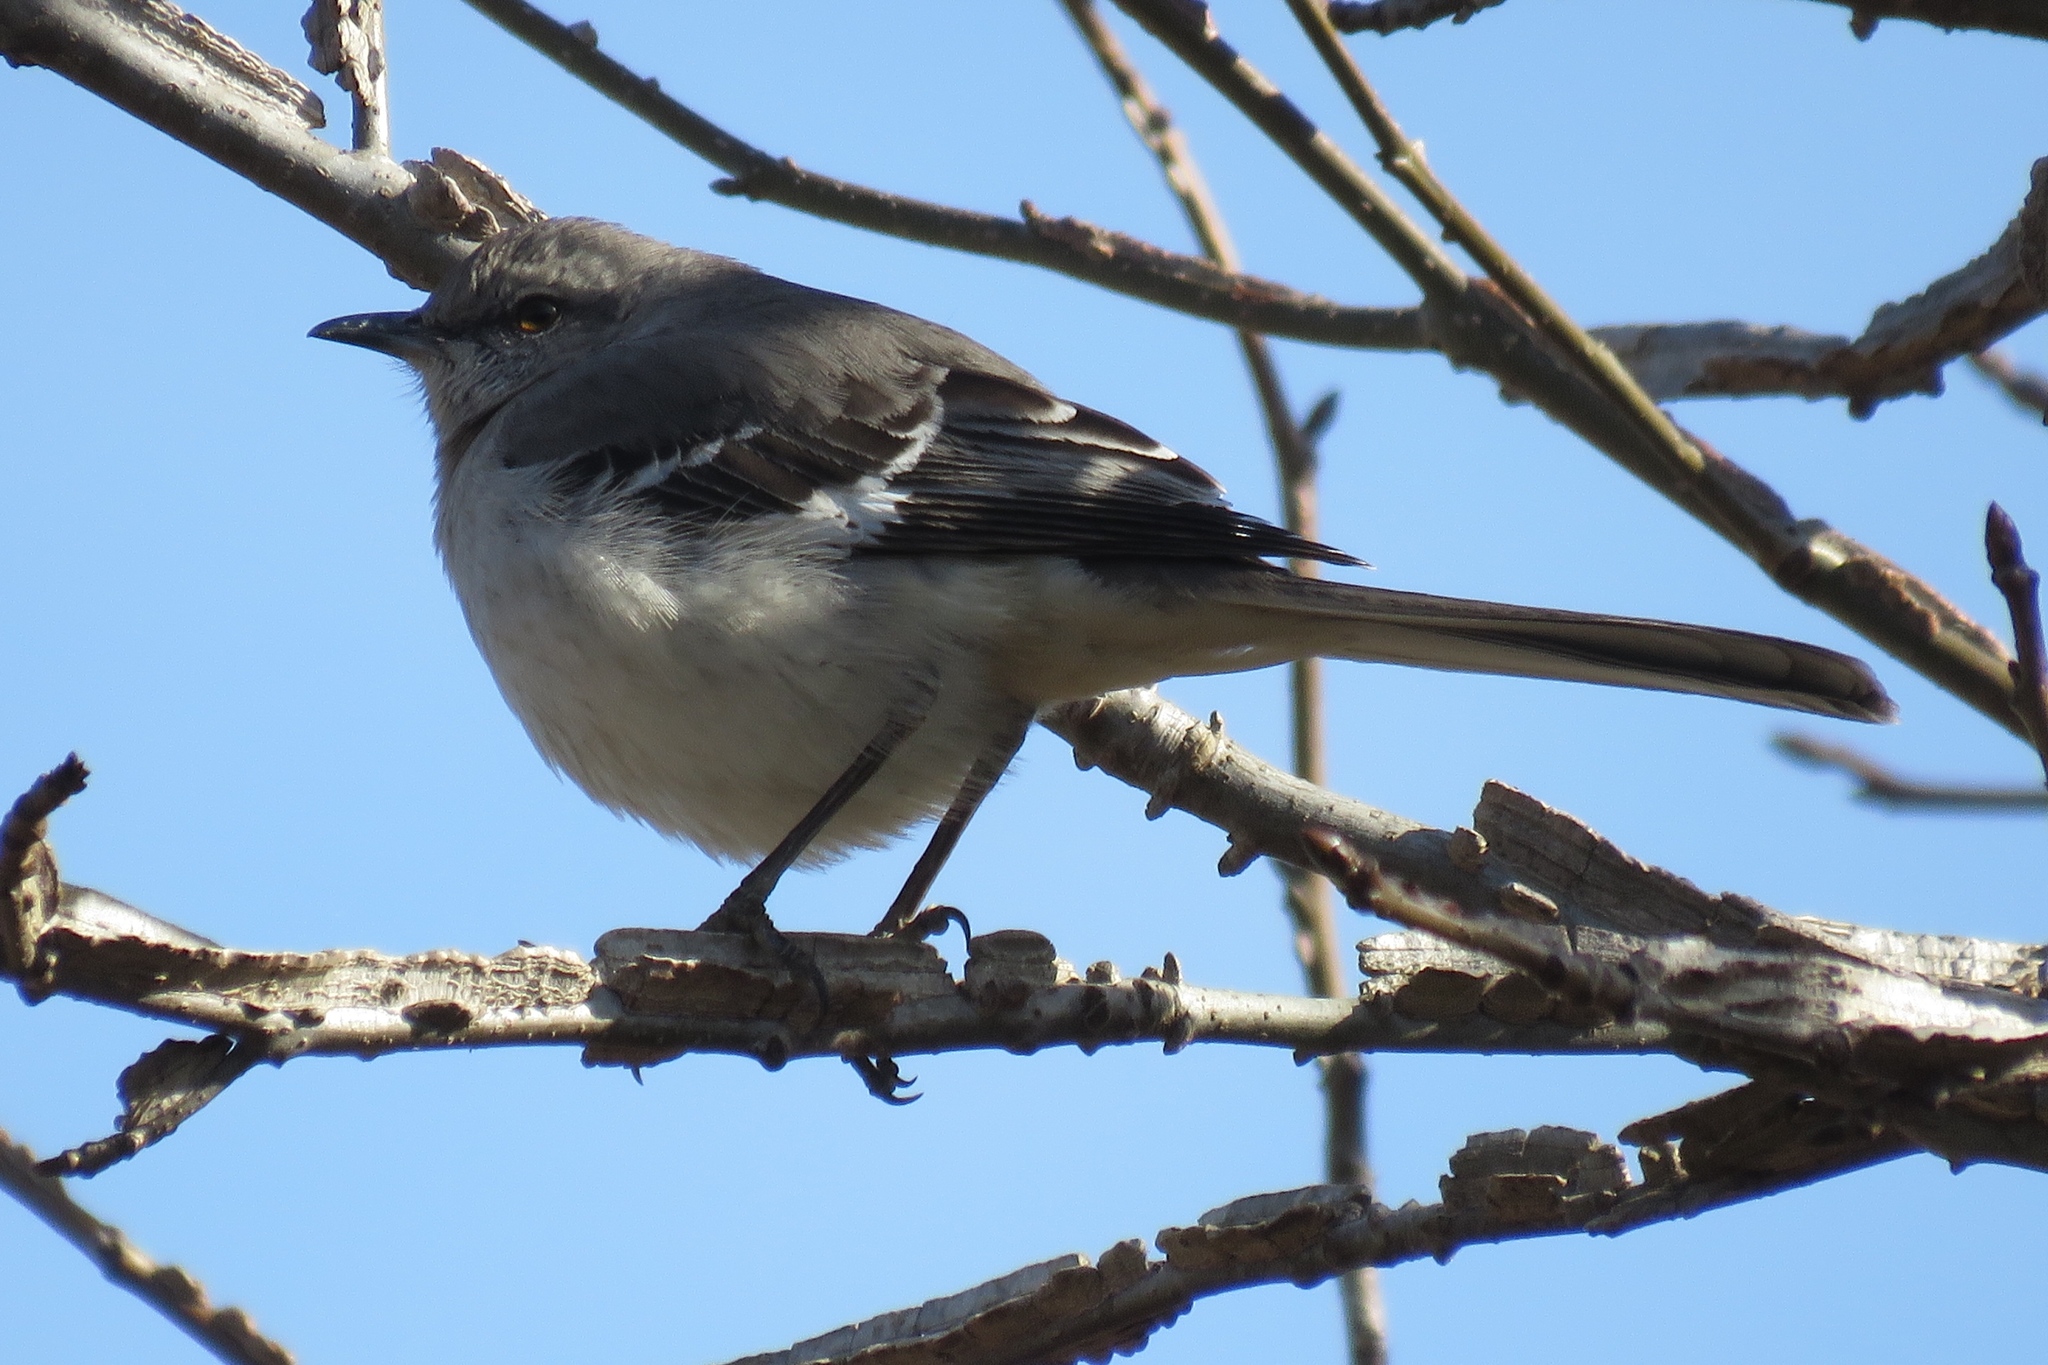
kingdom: Animalia
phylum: Chordata
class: Aves
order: Passeriformes
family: Mimidae
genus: Mimus
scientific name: Mimus polyglottos
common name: Northern mockingbird
